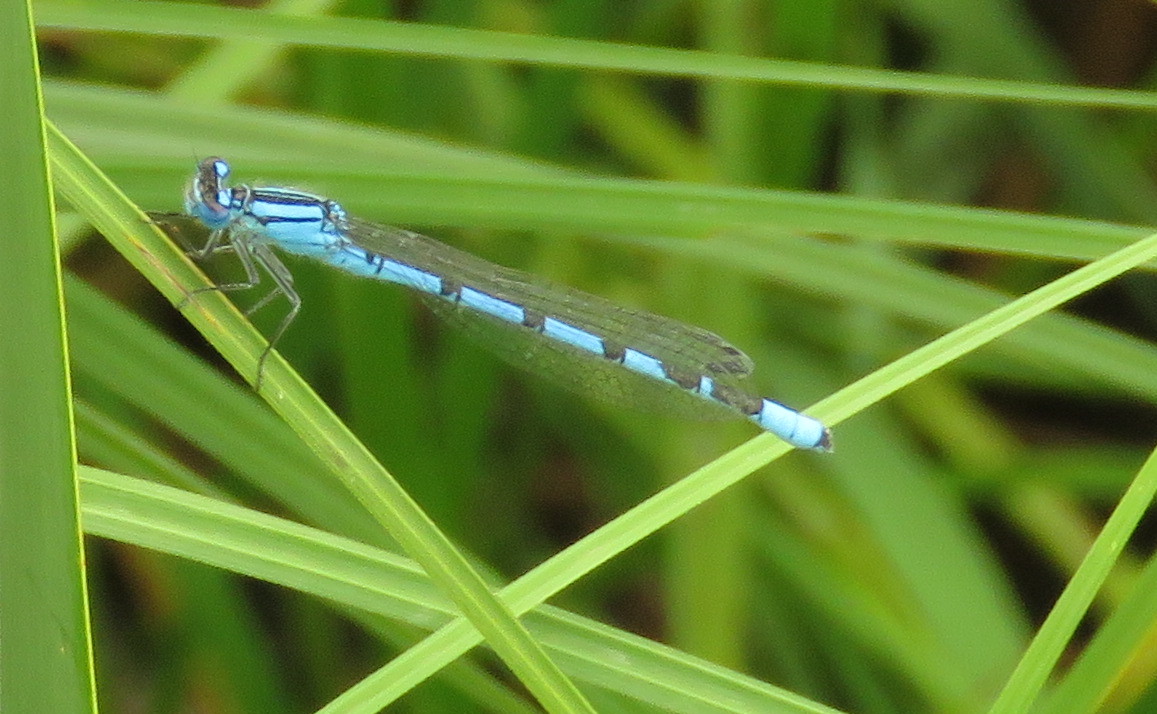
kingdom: Animalia
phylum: Arthropoda
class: Insecta
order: Odonata
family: Coenagrionidae
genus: Enallagma
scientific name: Enallagma cyathigerum
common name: Common blue damselfly
